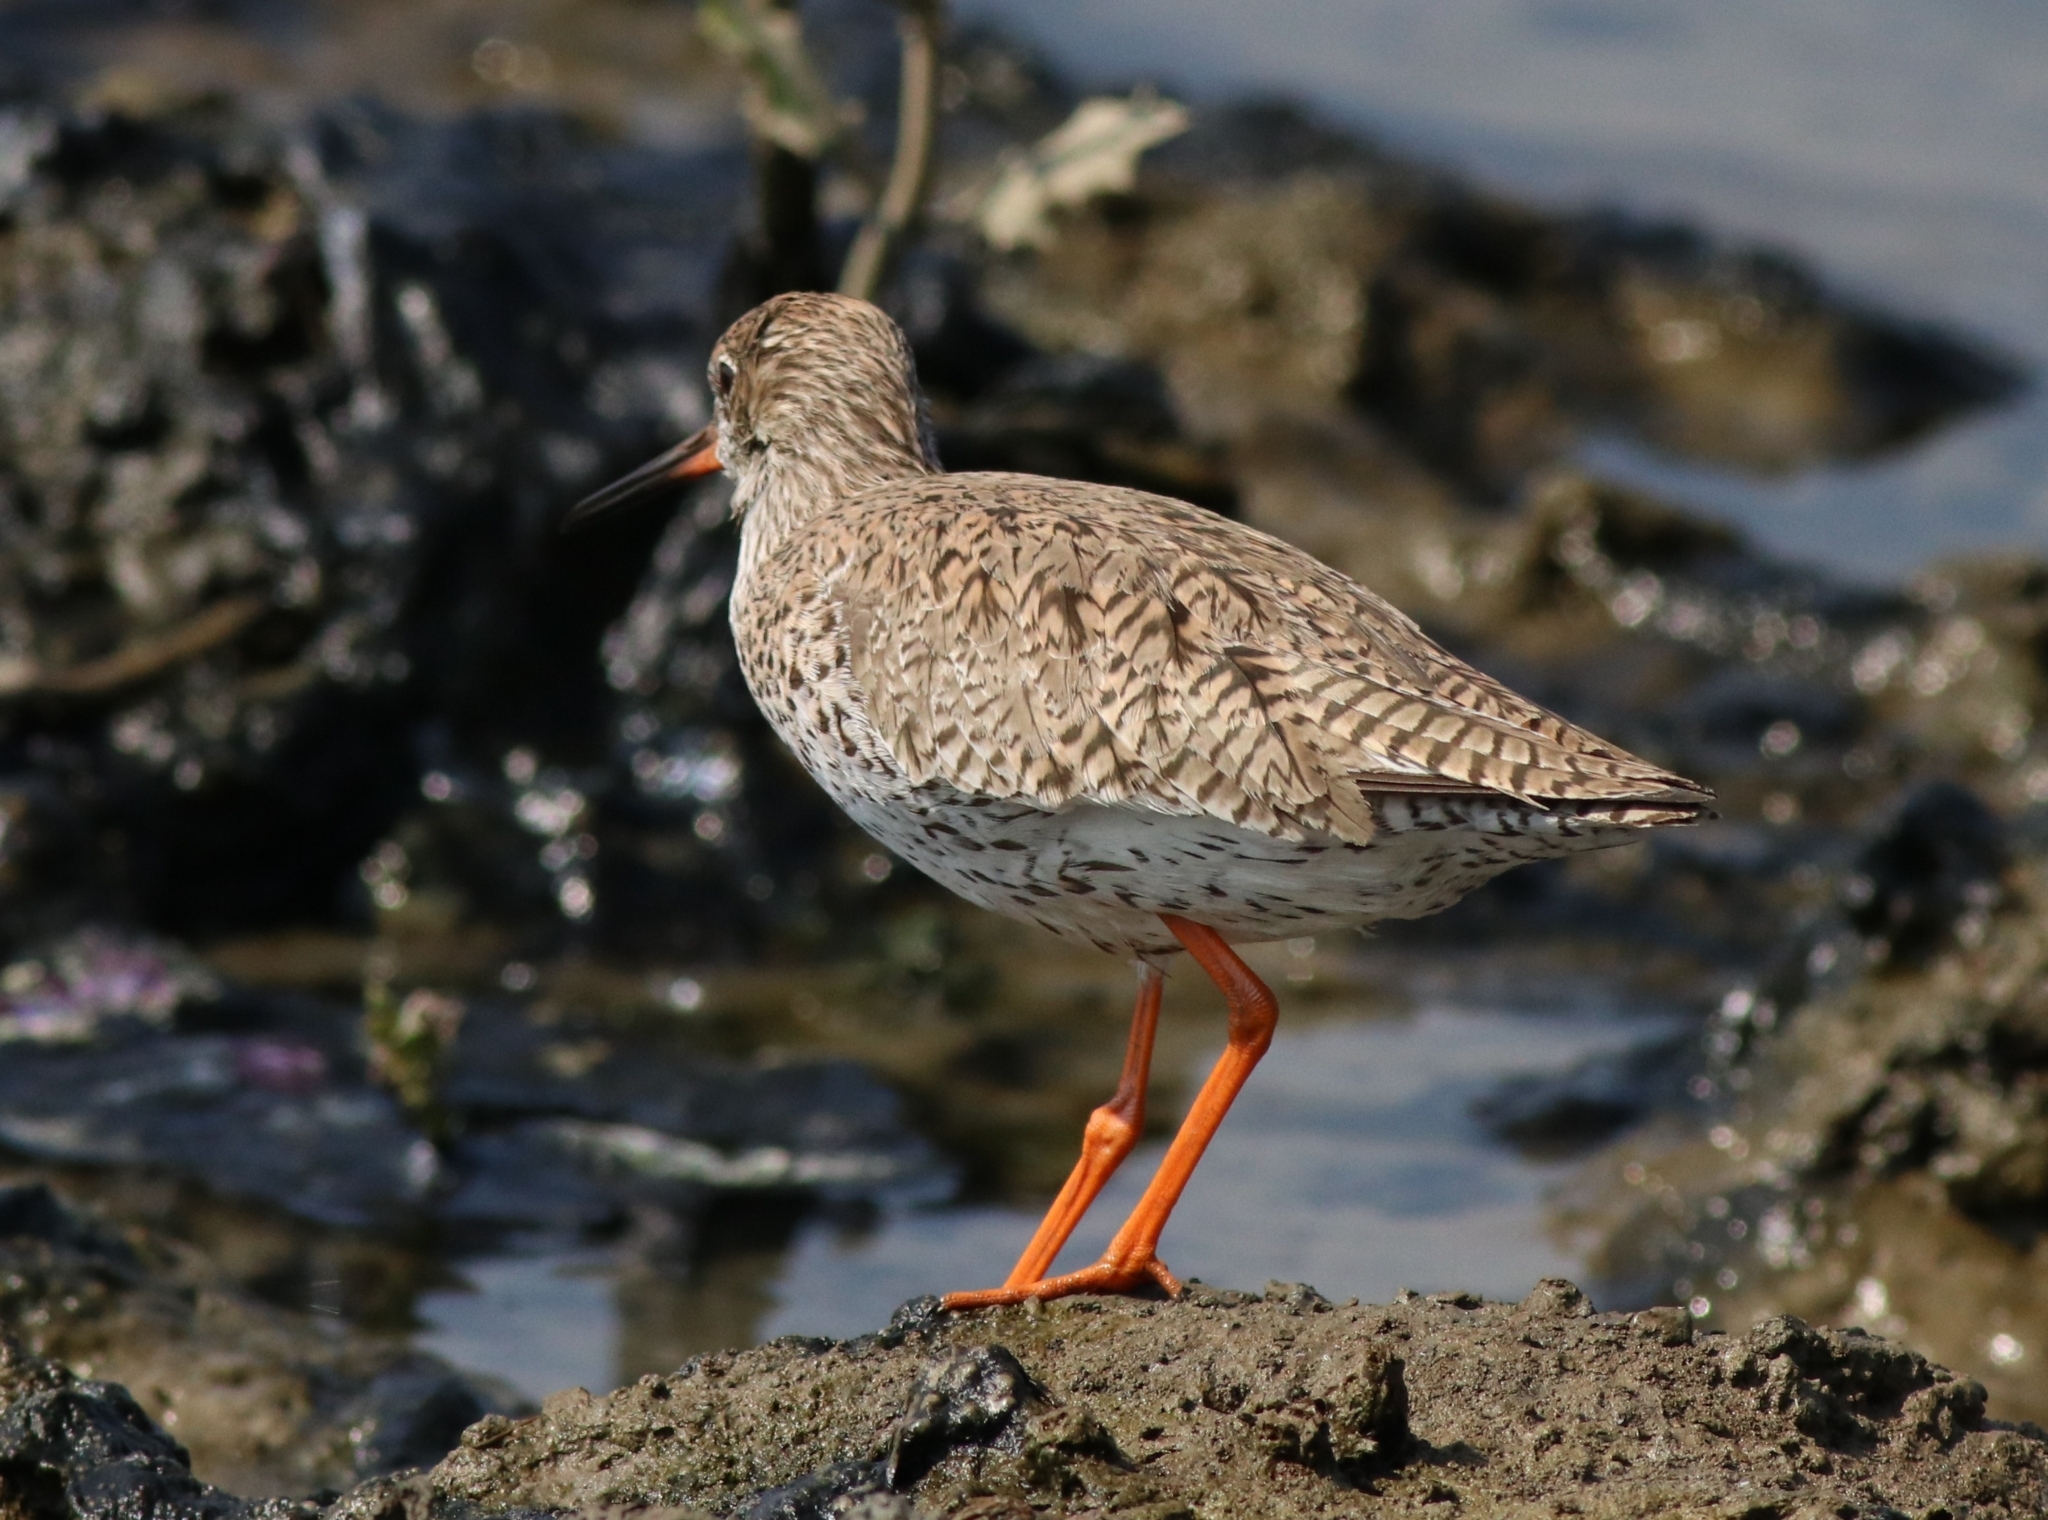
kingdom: Animalia
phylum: Chordata
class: Aves
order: Charadriiformes
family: Scolopacidae
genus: Tringa
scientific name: Tringa totanus
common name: Common redshank
